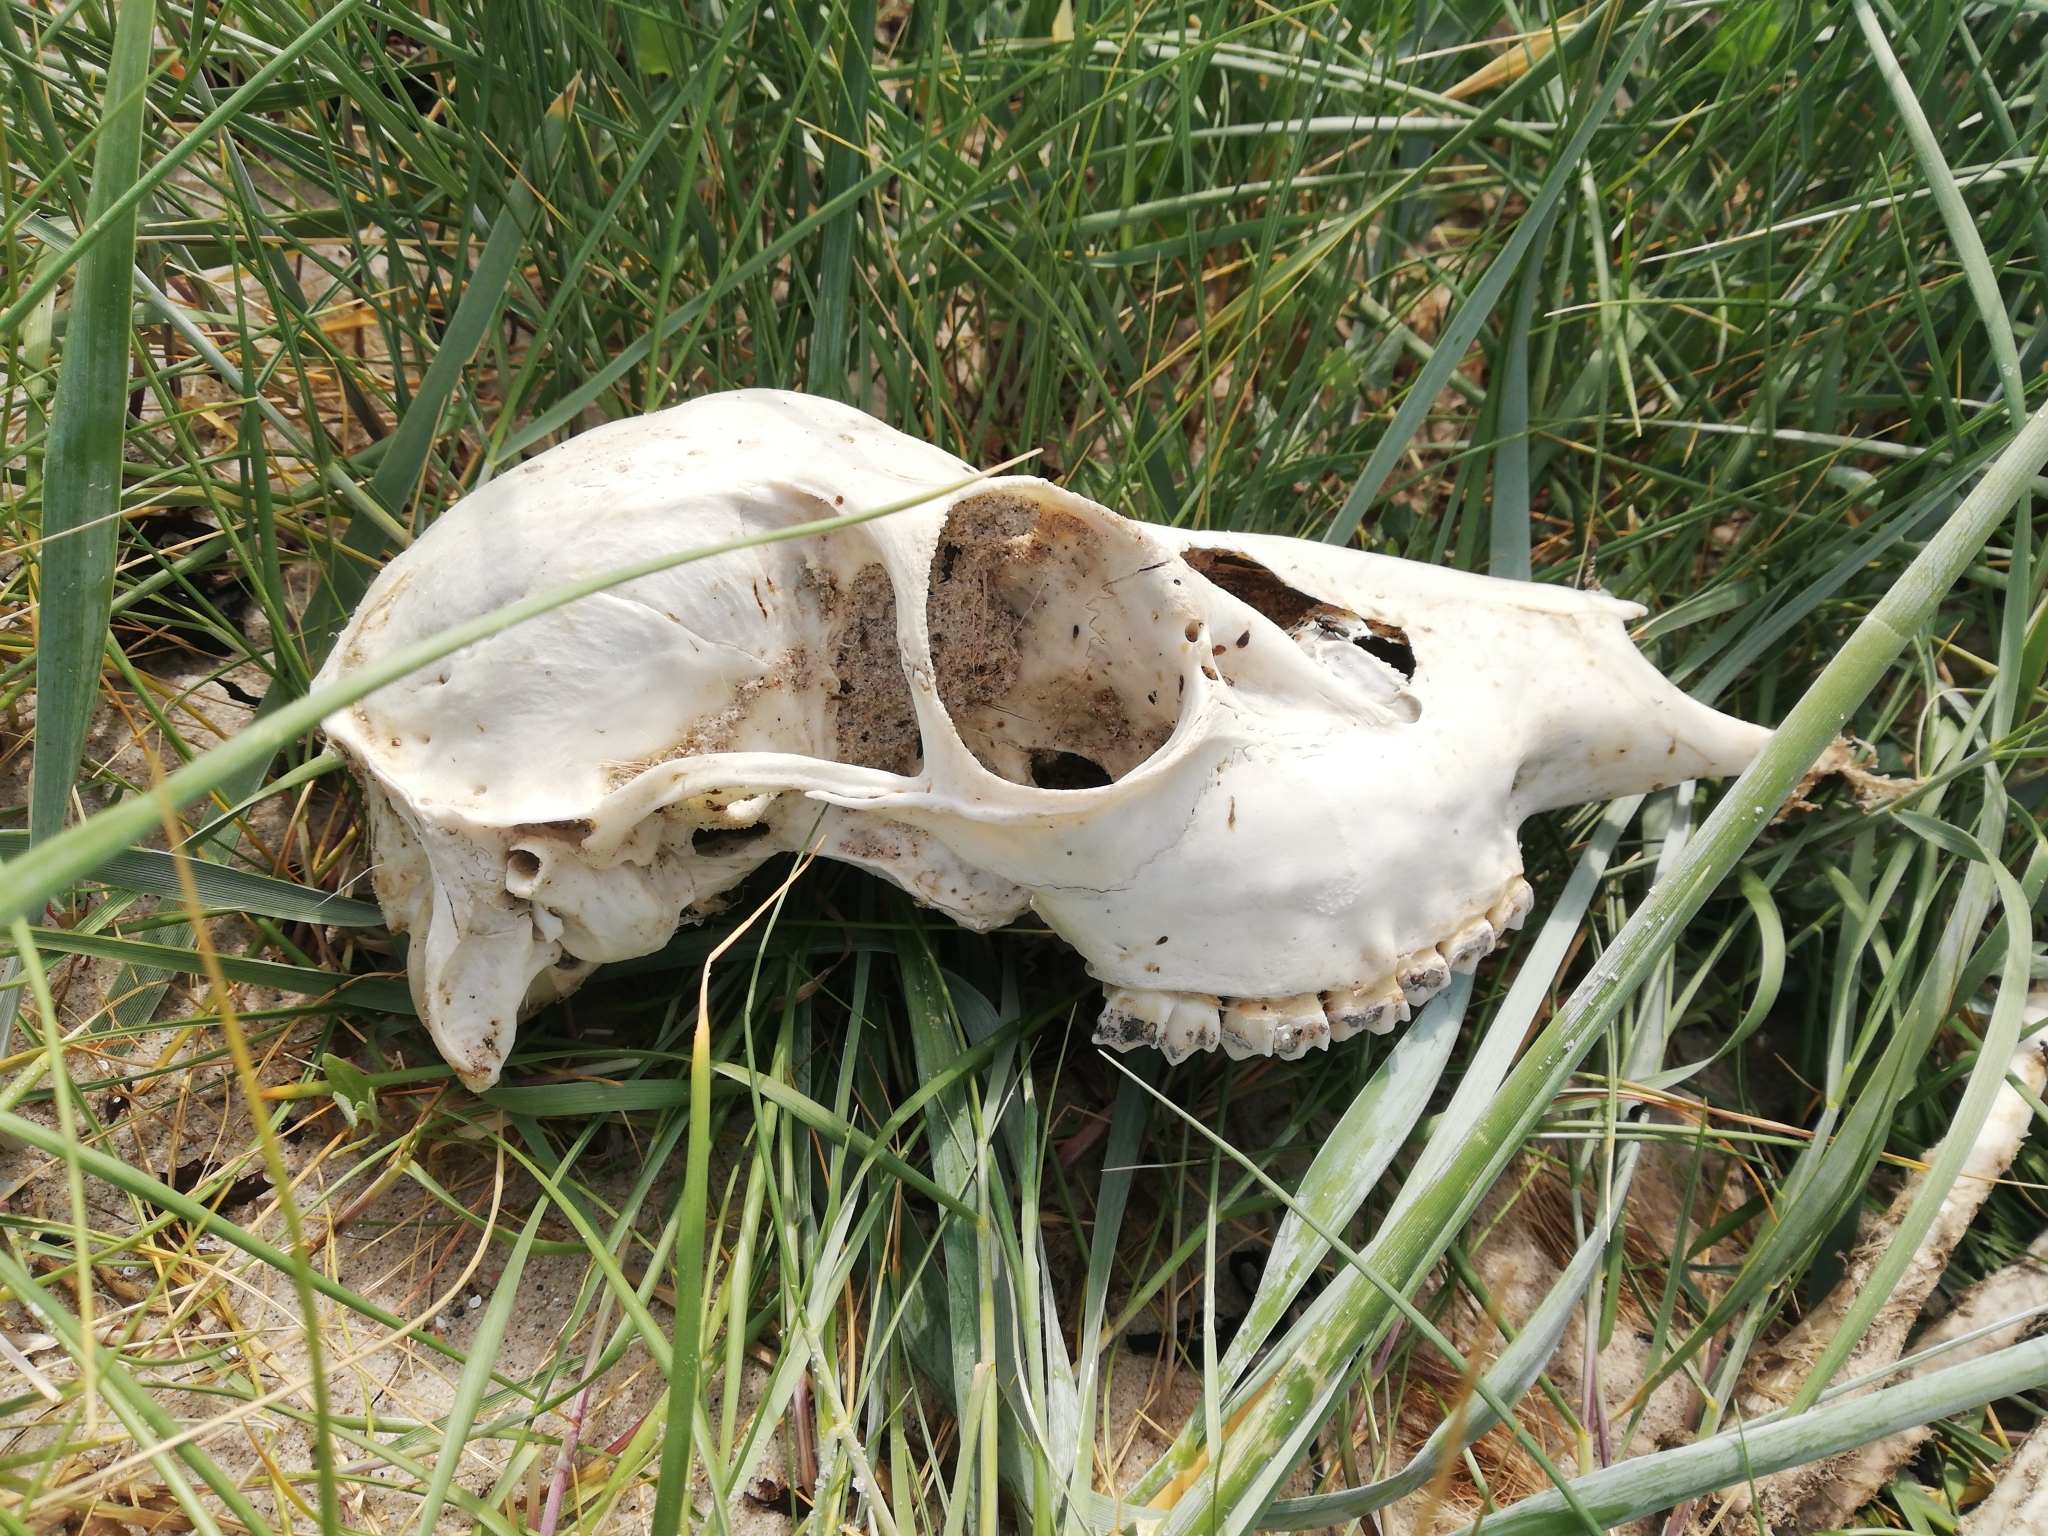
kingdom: Animalia
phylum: Chordata
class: Mammalia
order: Artiodactyla
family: Cervidae
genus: Dama
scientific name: Dama dama
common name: Fallow deer
